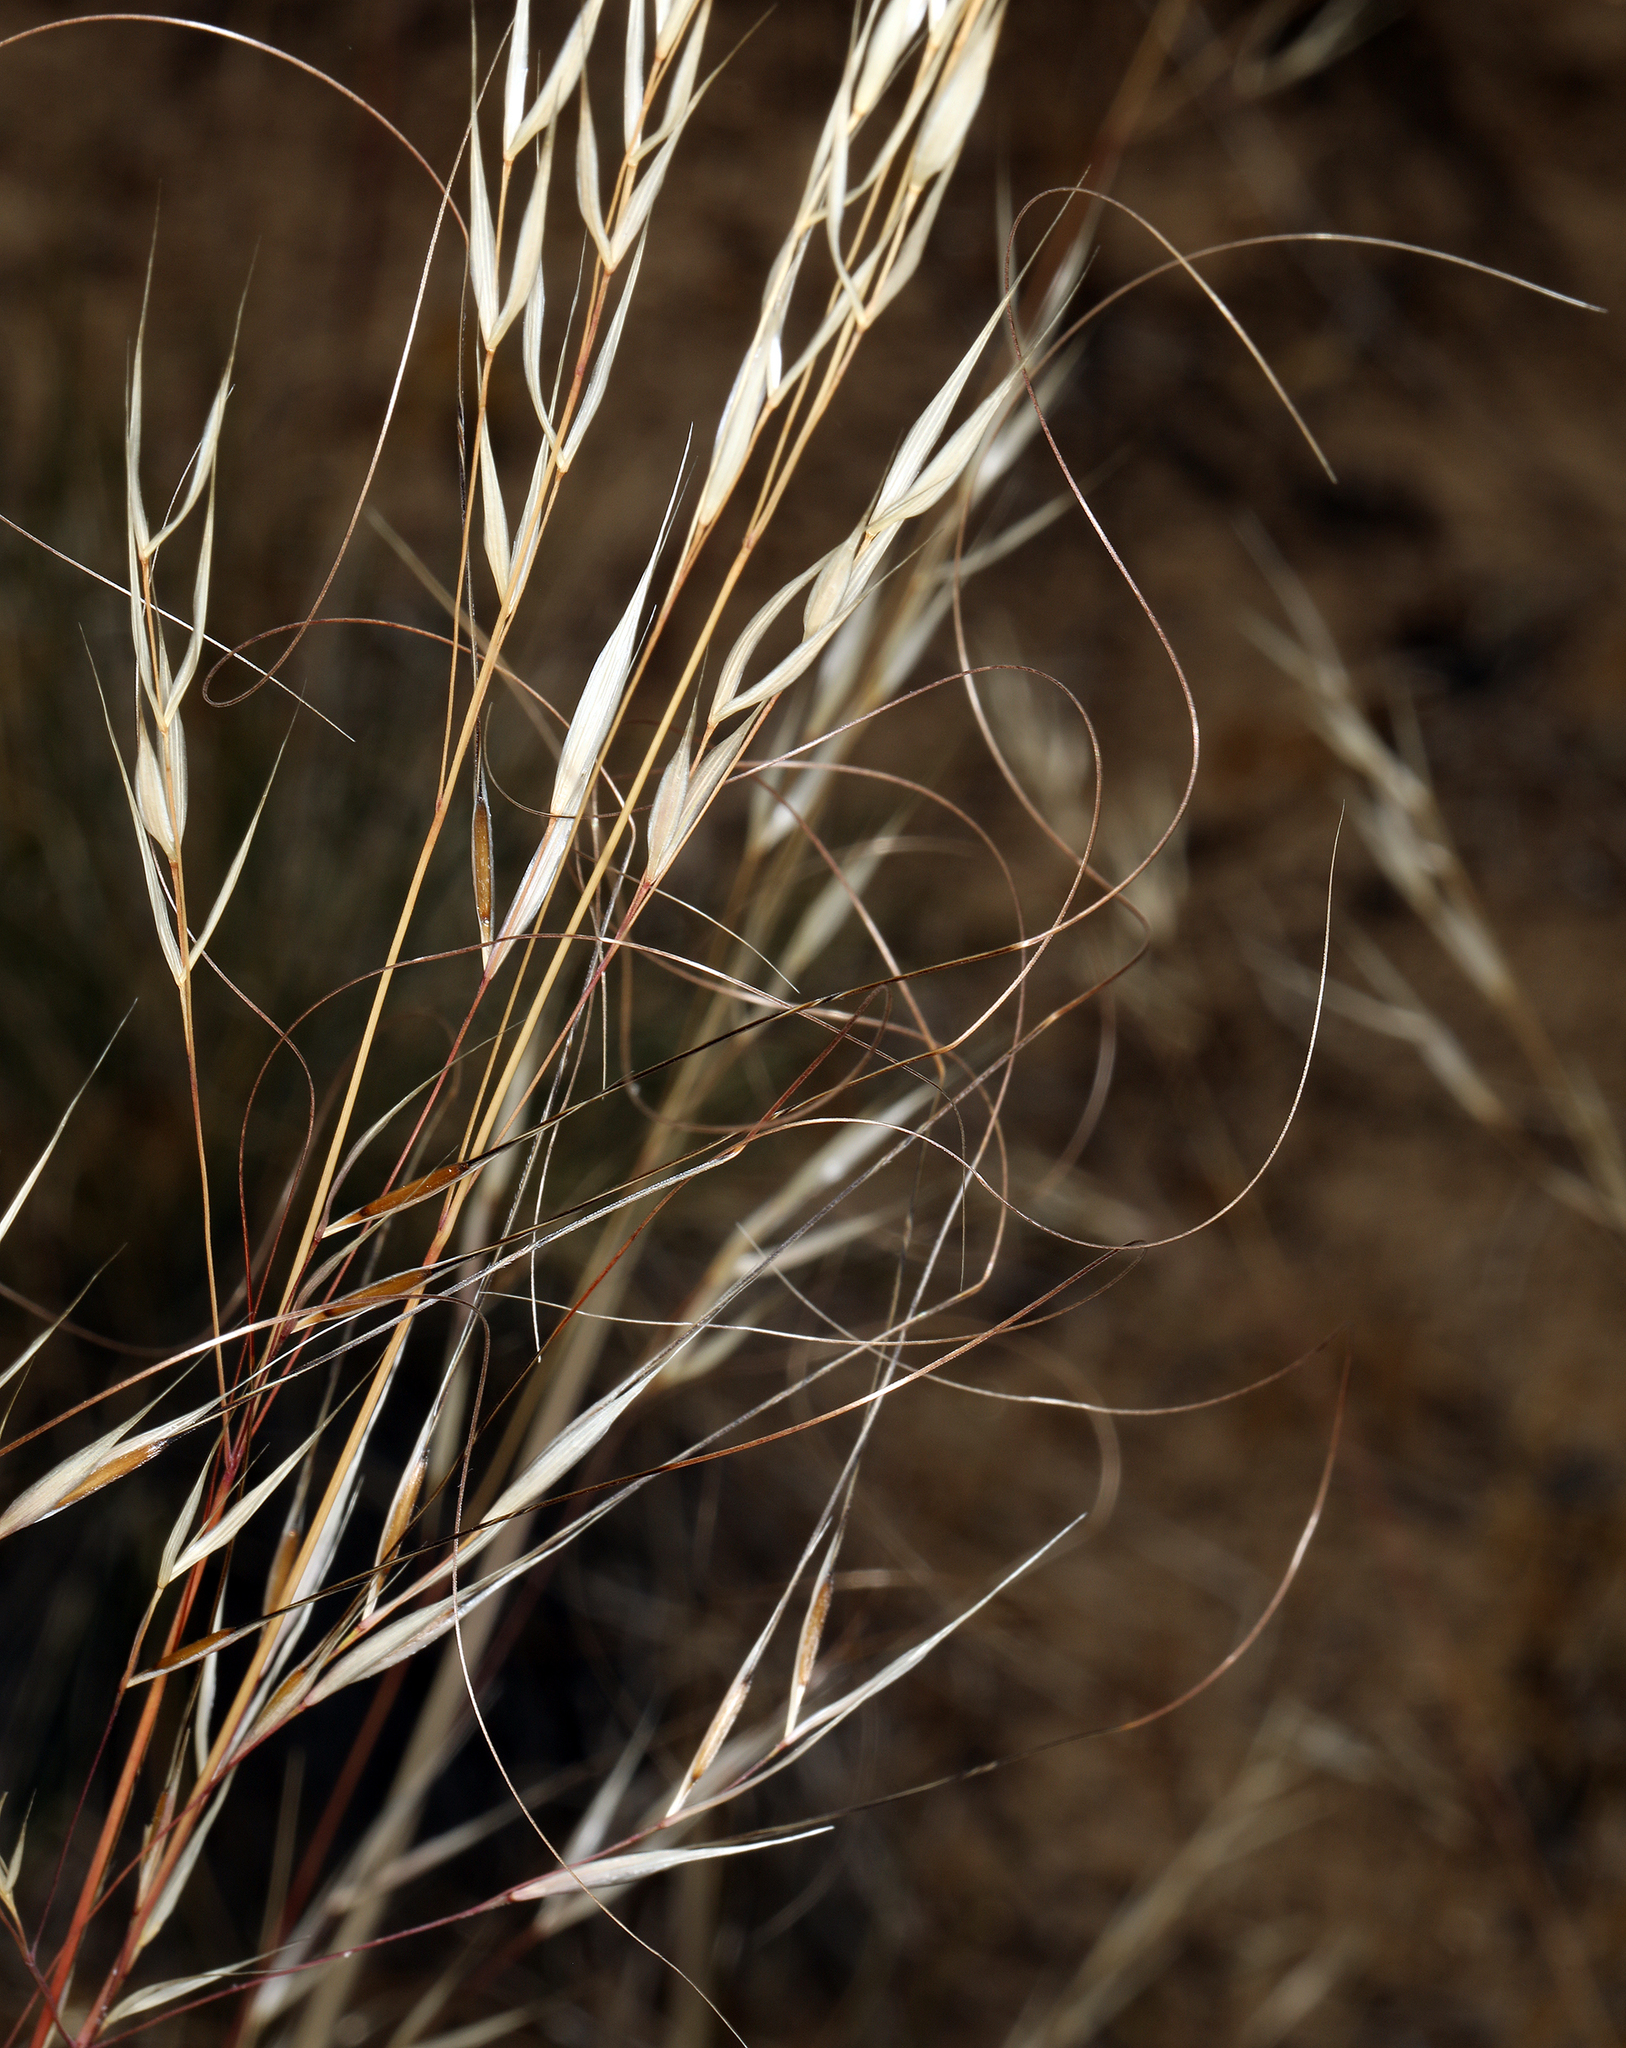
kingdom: Plantae
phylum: Tracheophyta
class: Liliopsida
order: Poales
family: Poaceae
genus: Hesperostipa
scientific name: Hesperostipa comata
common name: Needle-and-thread grass
